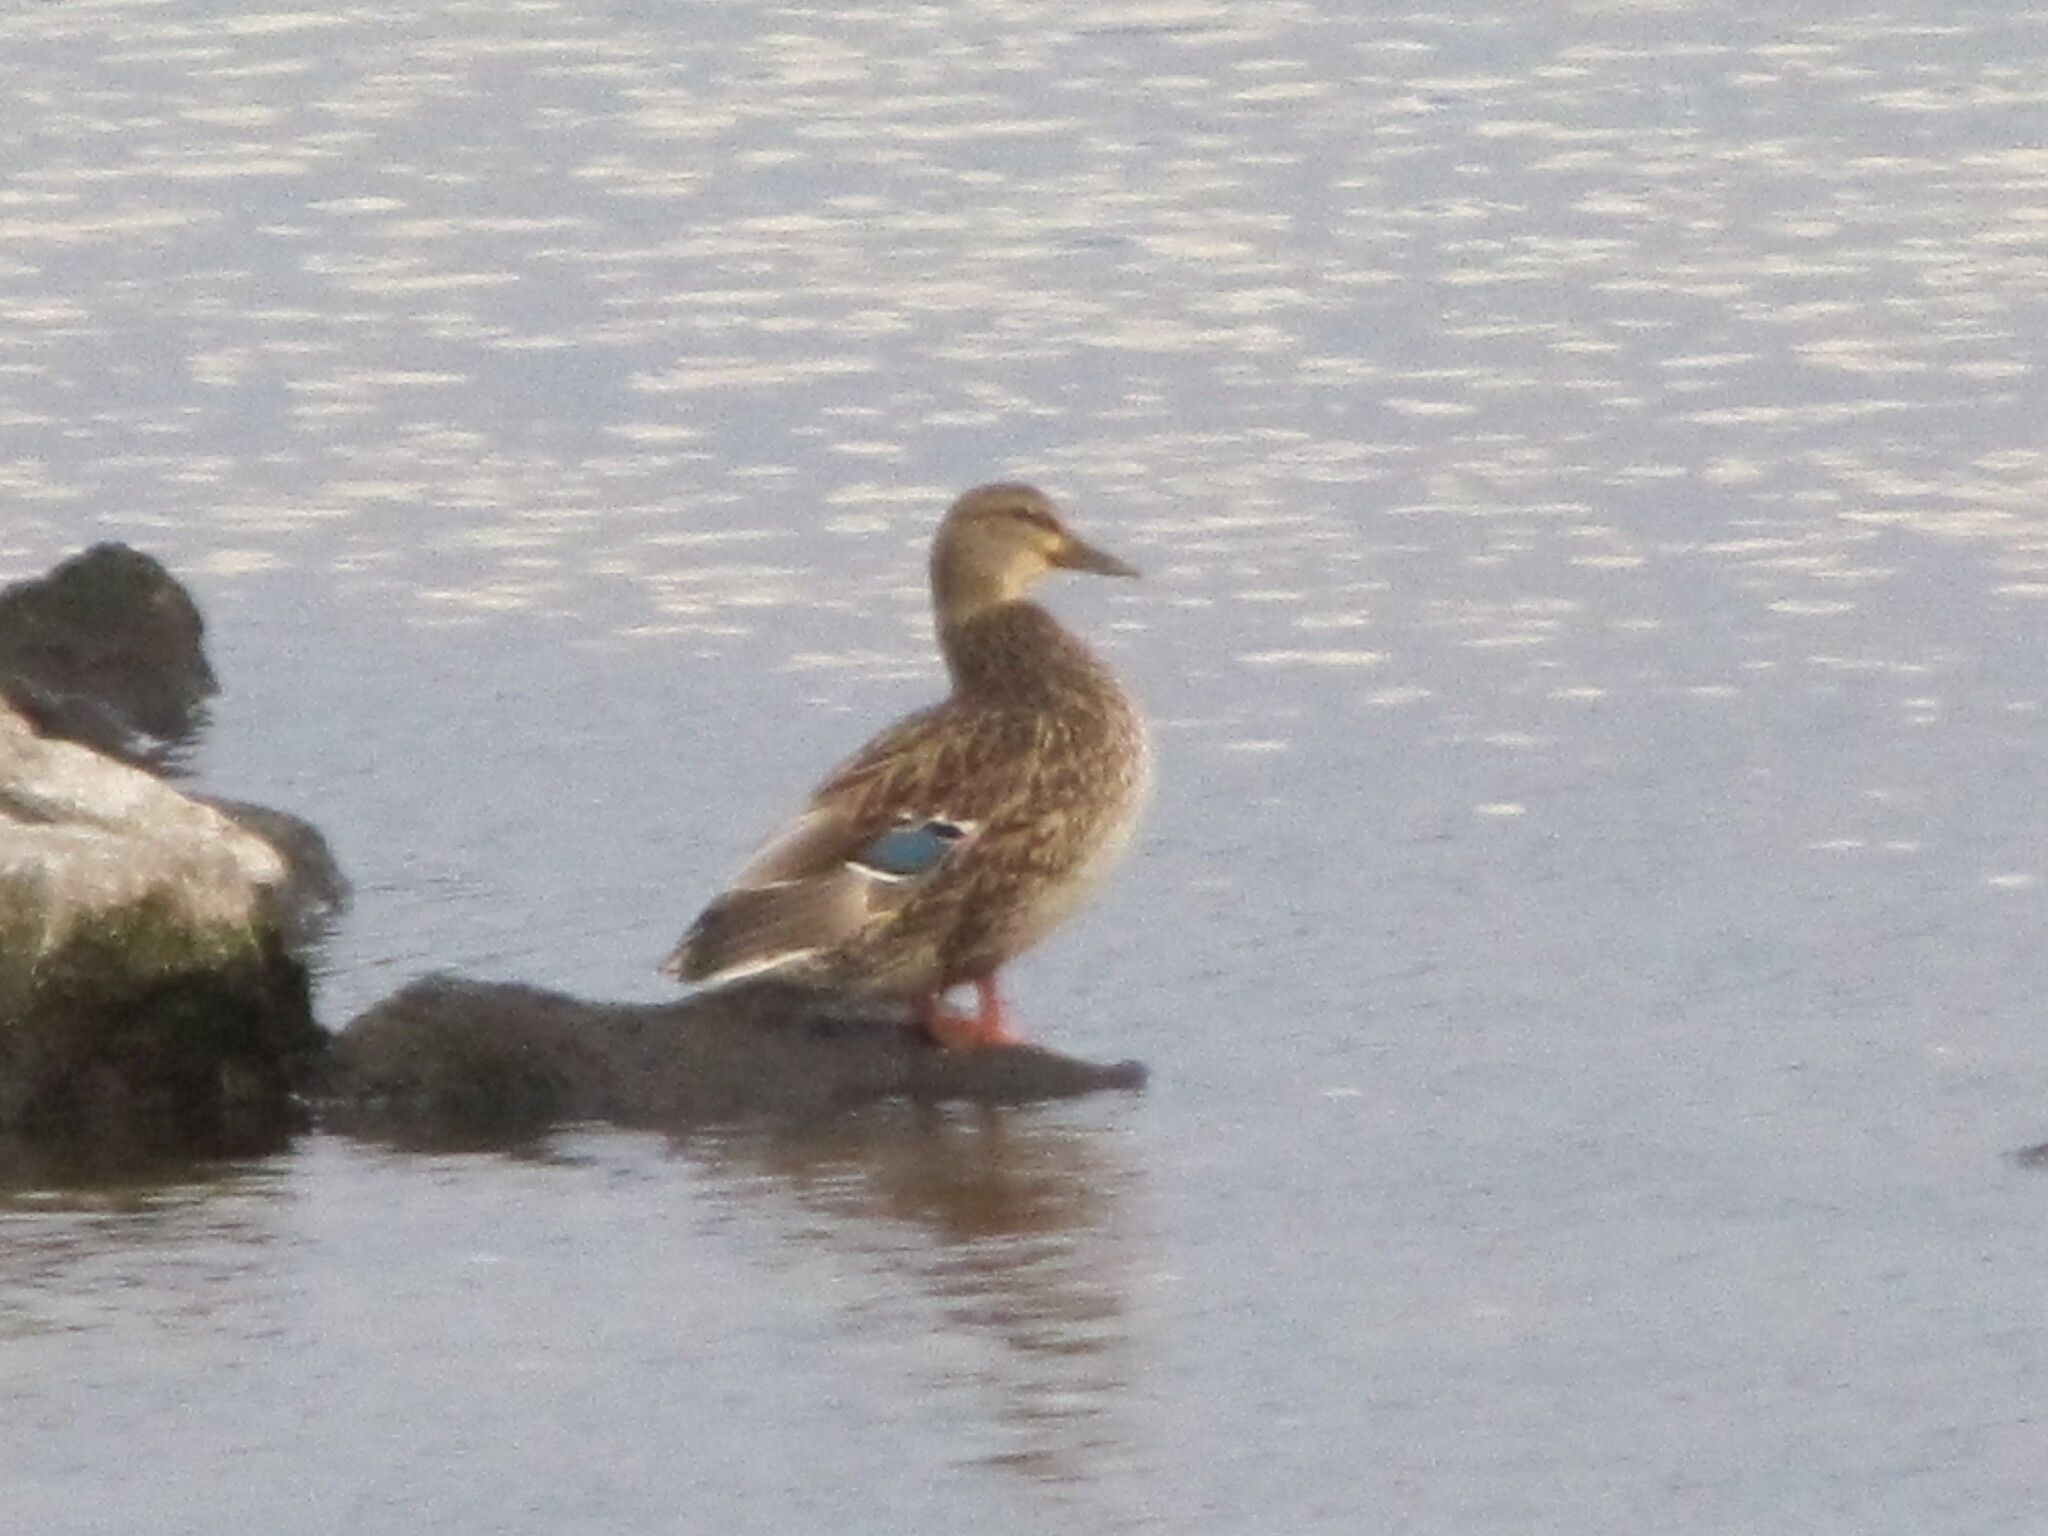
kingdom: Animalia
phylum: Chordata
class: Aves
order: Anseriformes
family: Anatidae
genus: Anas
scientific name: Anas platyrhynchos
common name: Mallard
